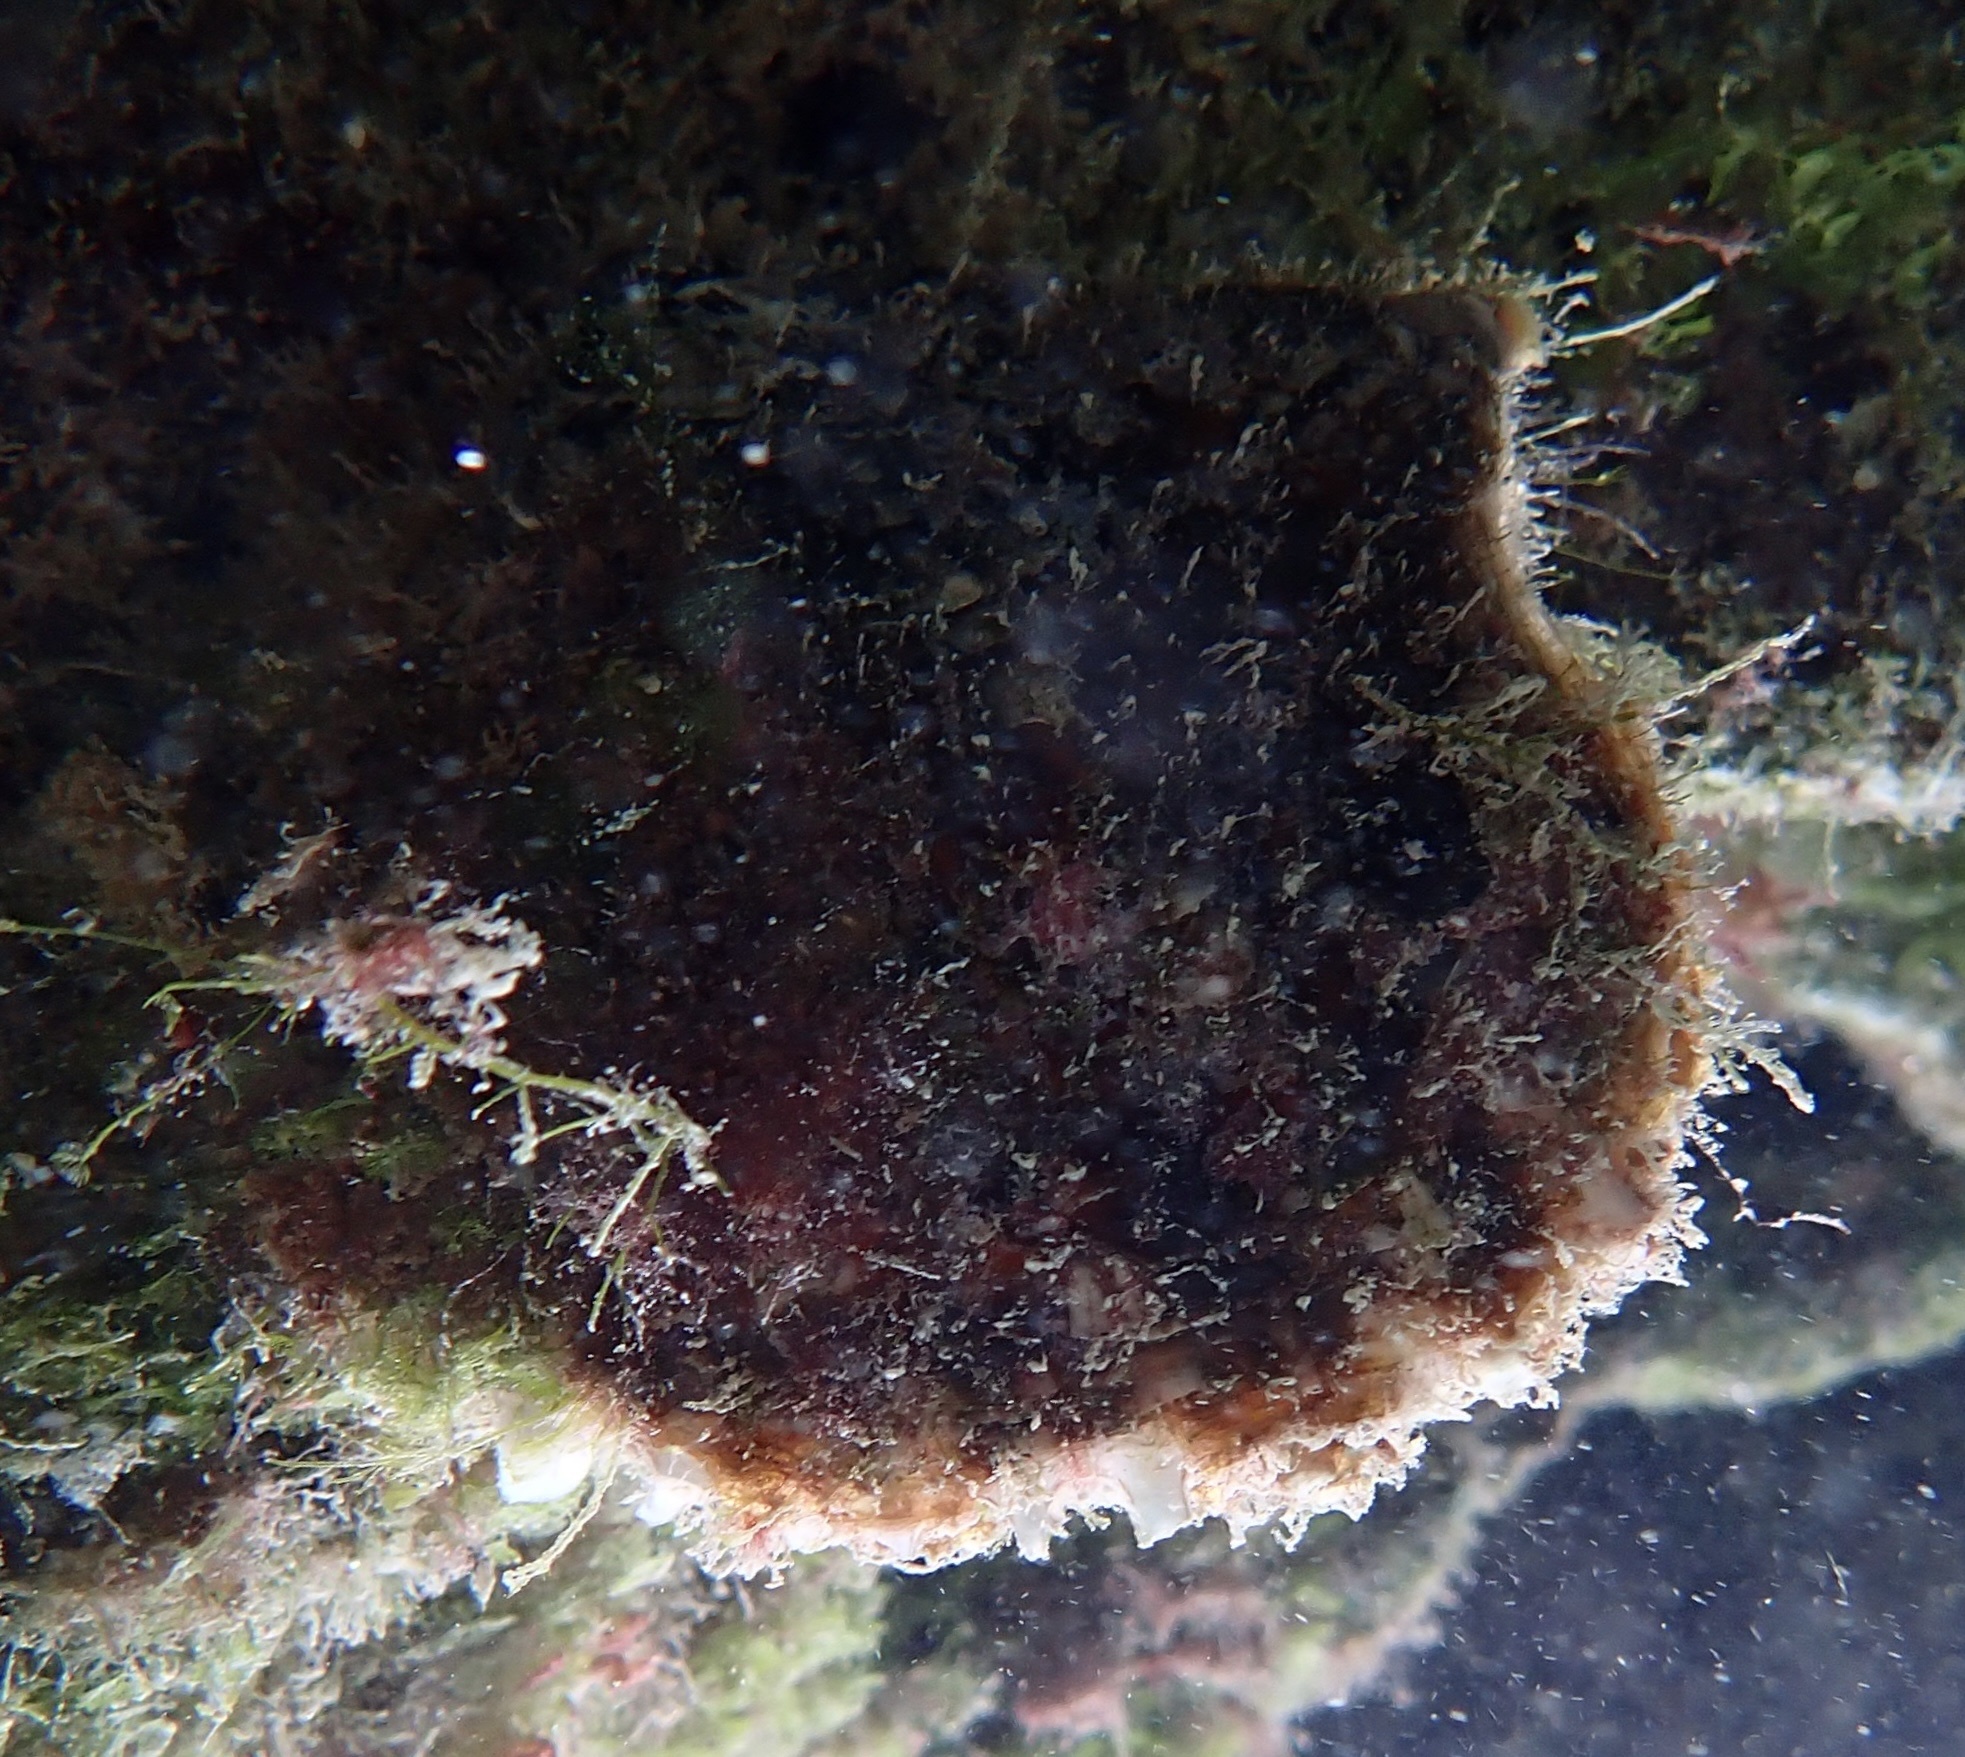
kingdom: Animalia
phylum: Mollusca
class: Bivalvia
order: Ostreida
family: Margaritidae
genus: Pinctada
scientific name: Pinctada imbricata
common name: Atlantic pearl-oyster
